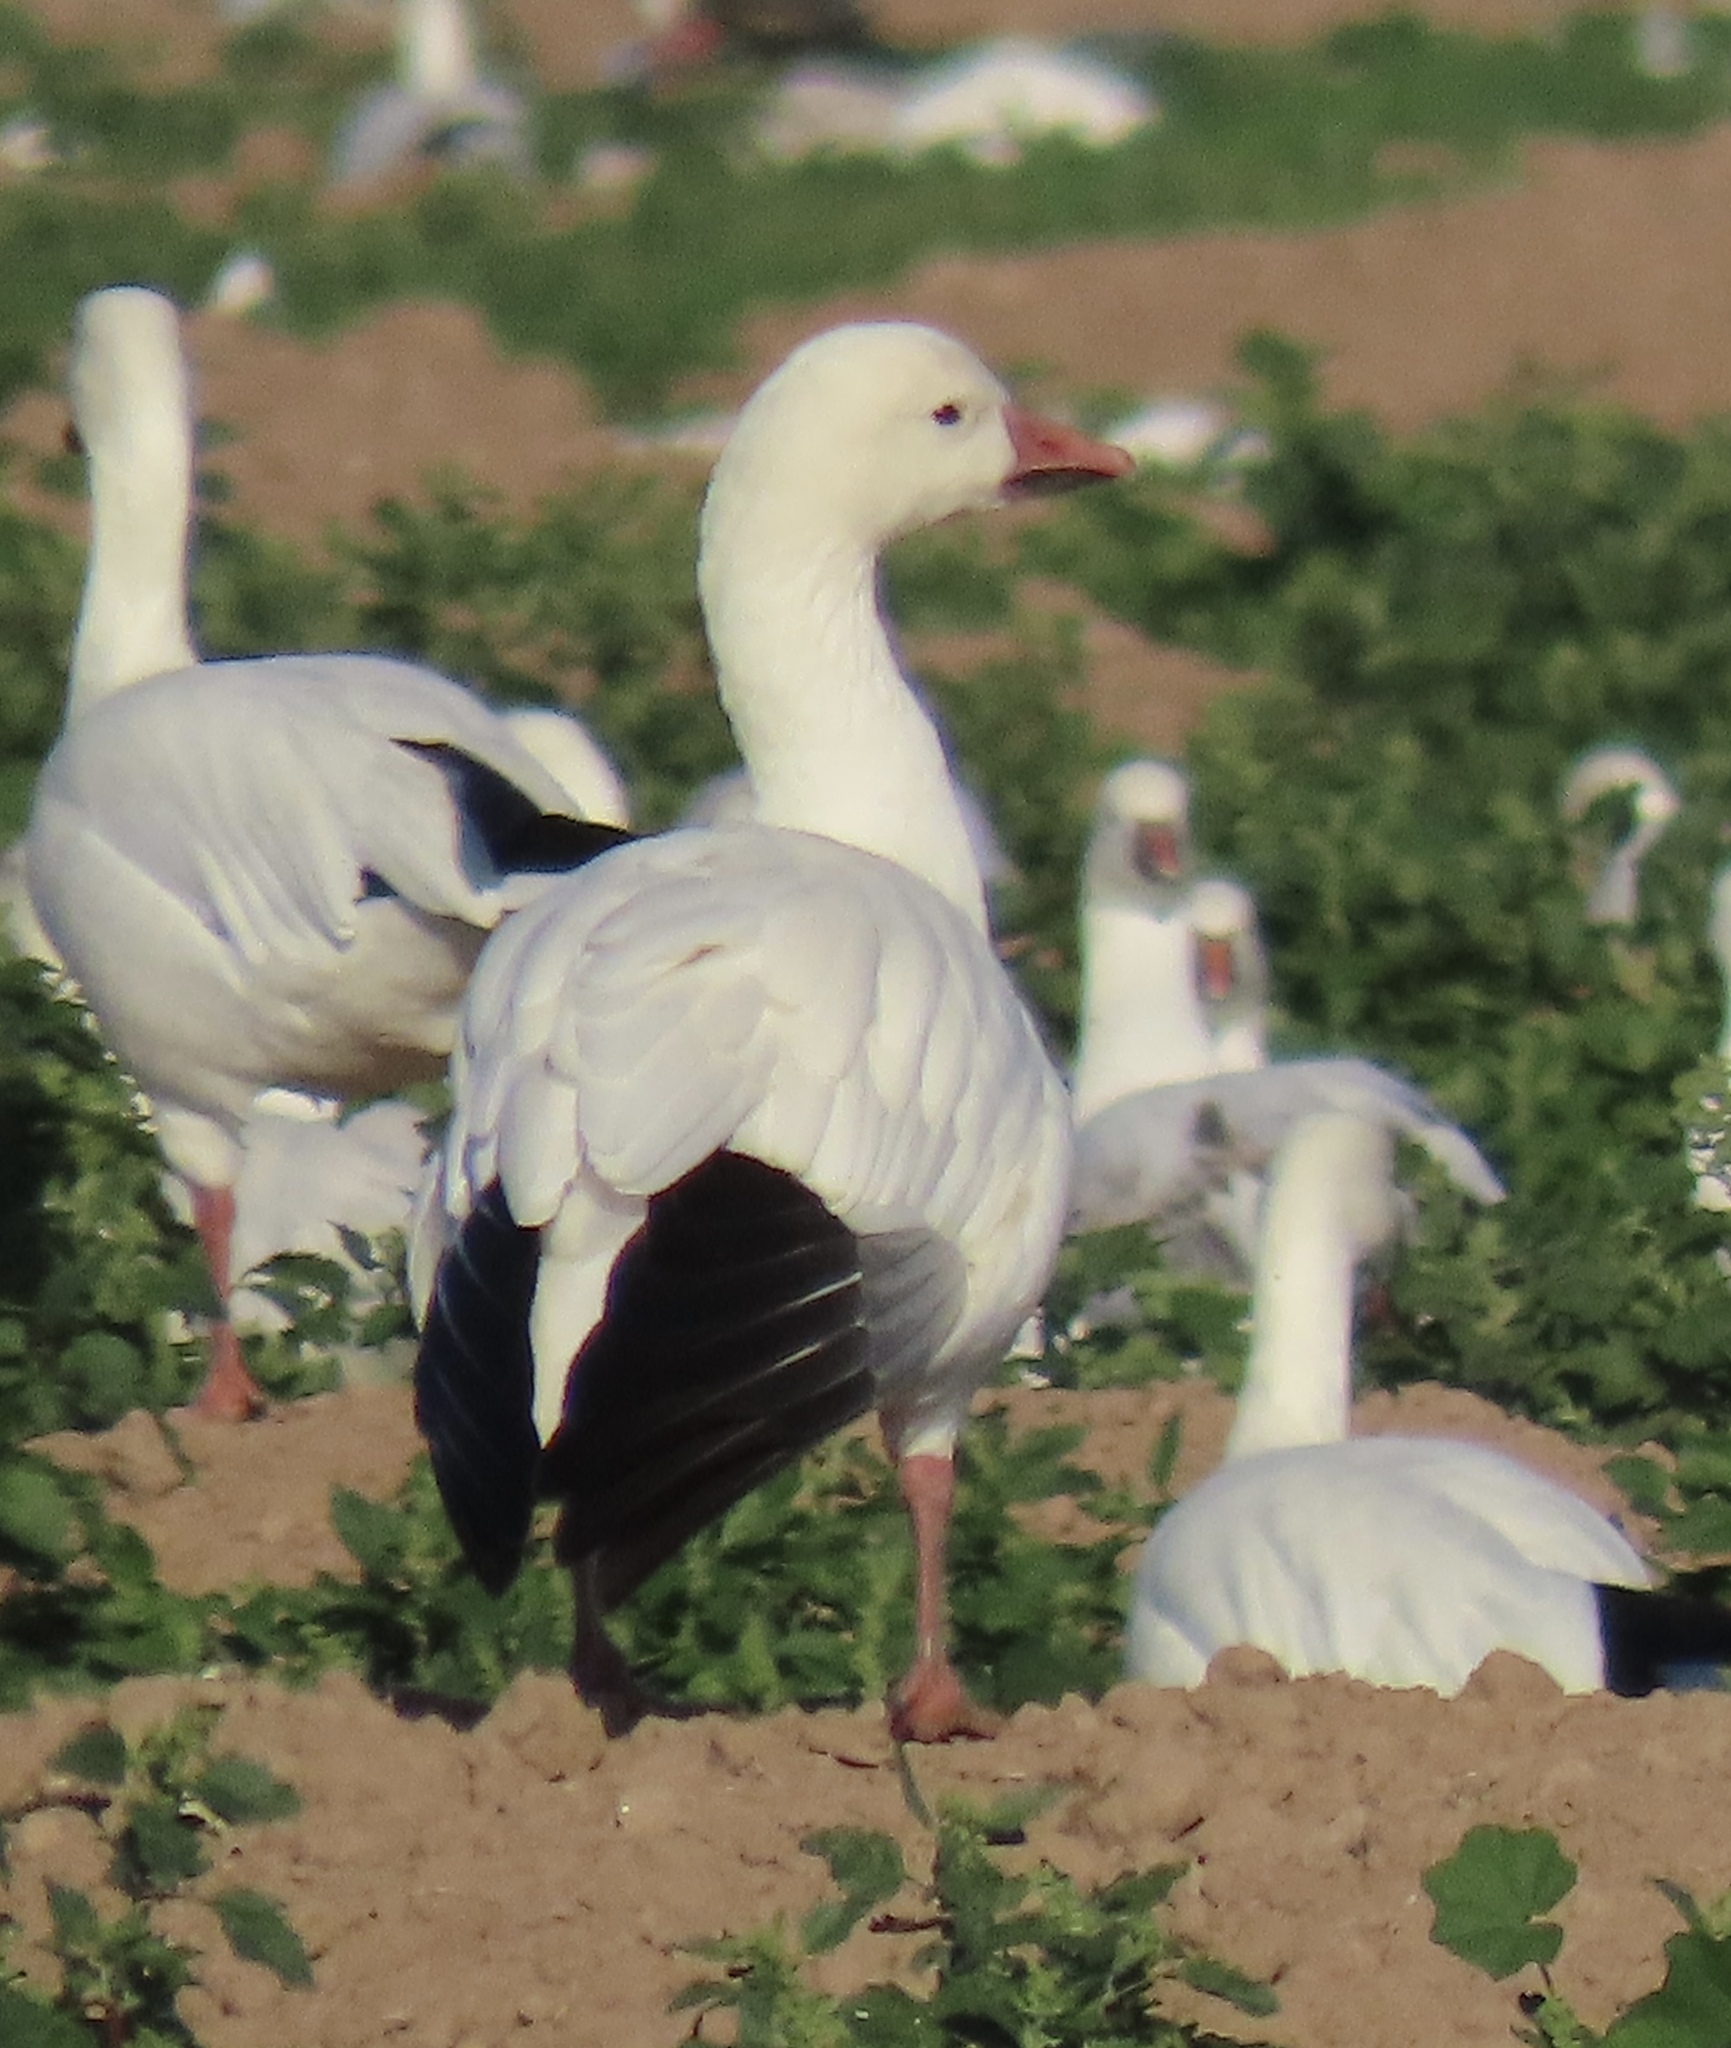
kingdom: Animalia
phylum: Chordata
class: Aves
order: Anseriformes
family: Anatidae
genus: Anser
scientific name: Anser caerulescens
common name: Snow goose
